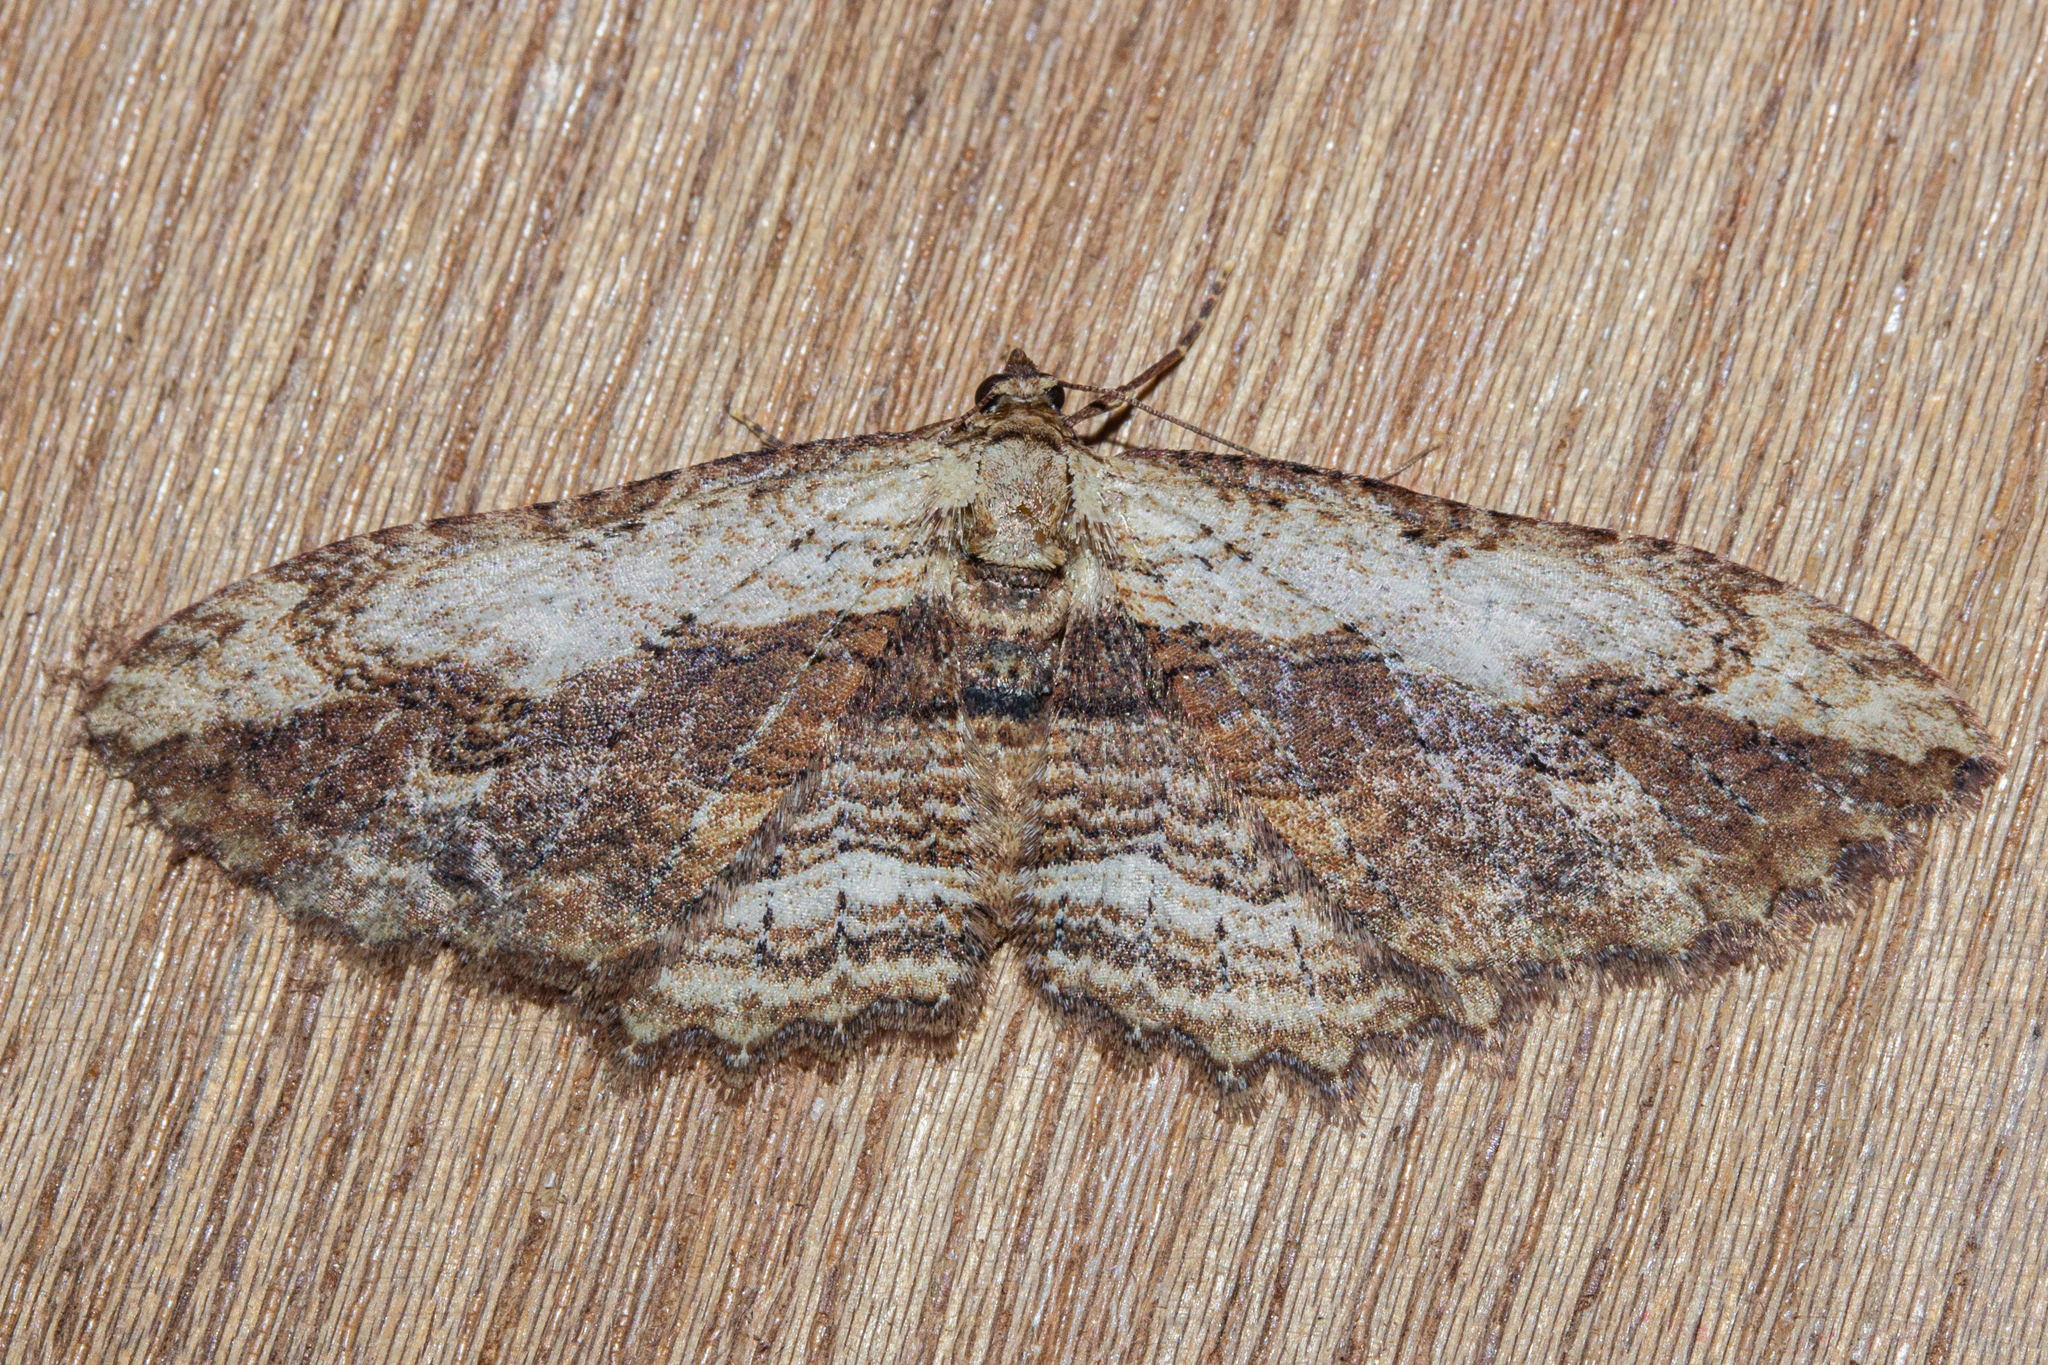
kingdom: Animalia
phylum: Arthropoda
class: Insecta
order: Lepidoptera
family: Geometridae
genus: Austrocidaria
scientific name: Austrocidaria bipartita
